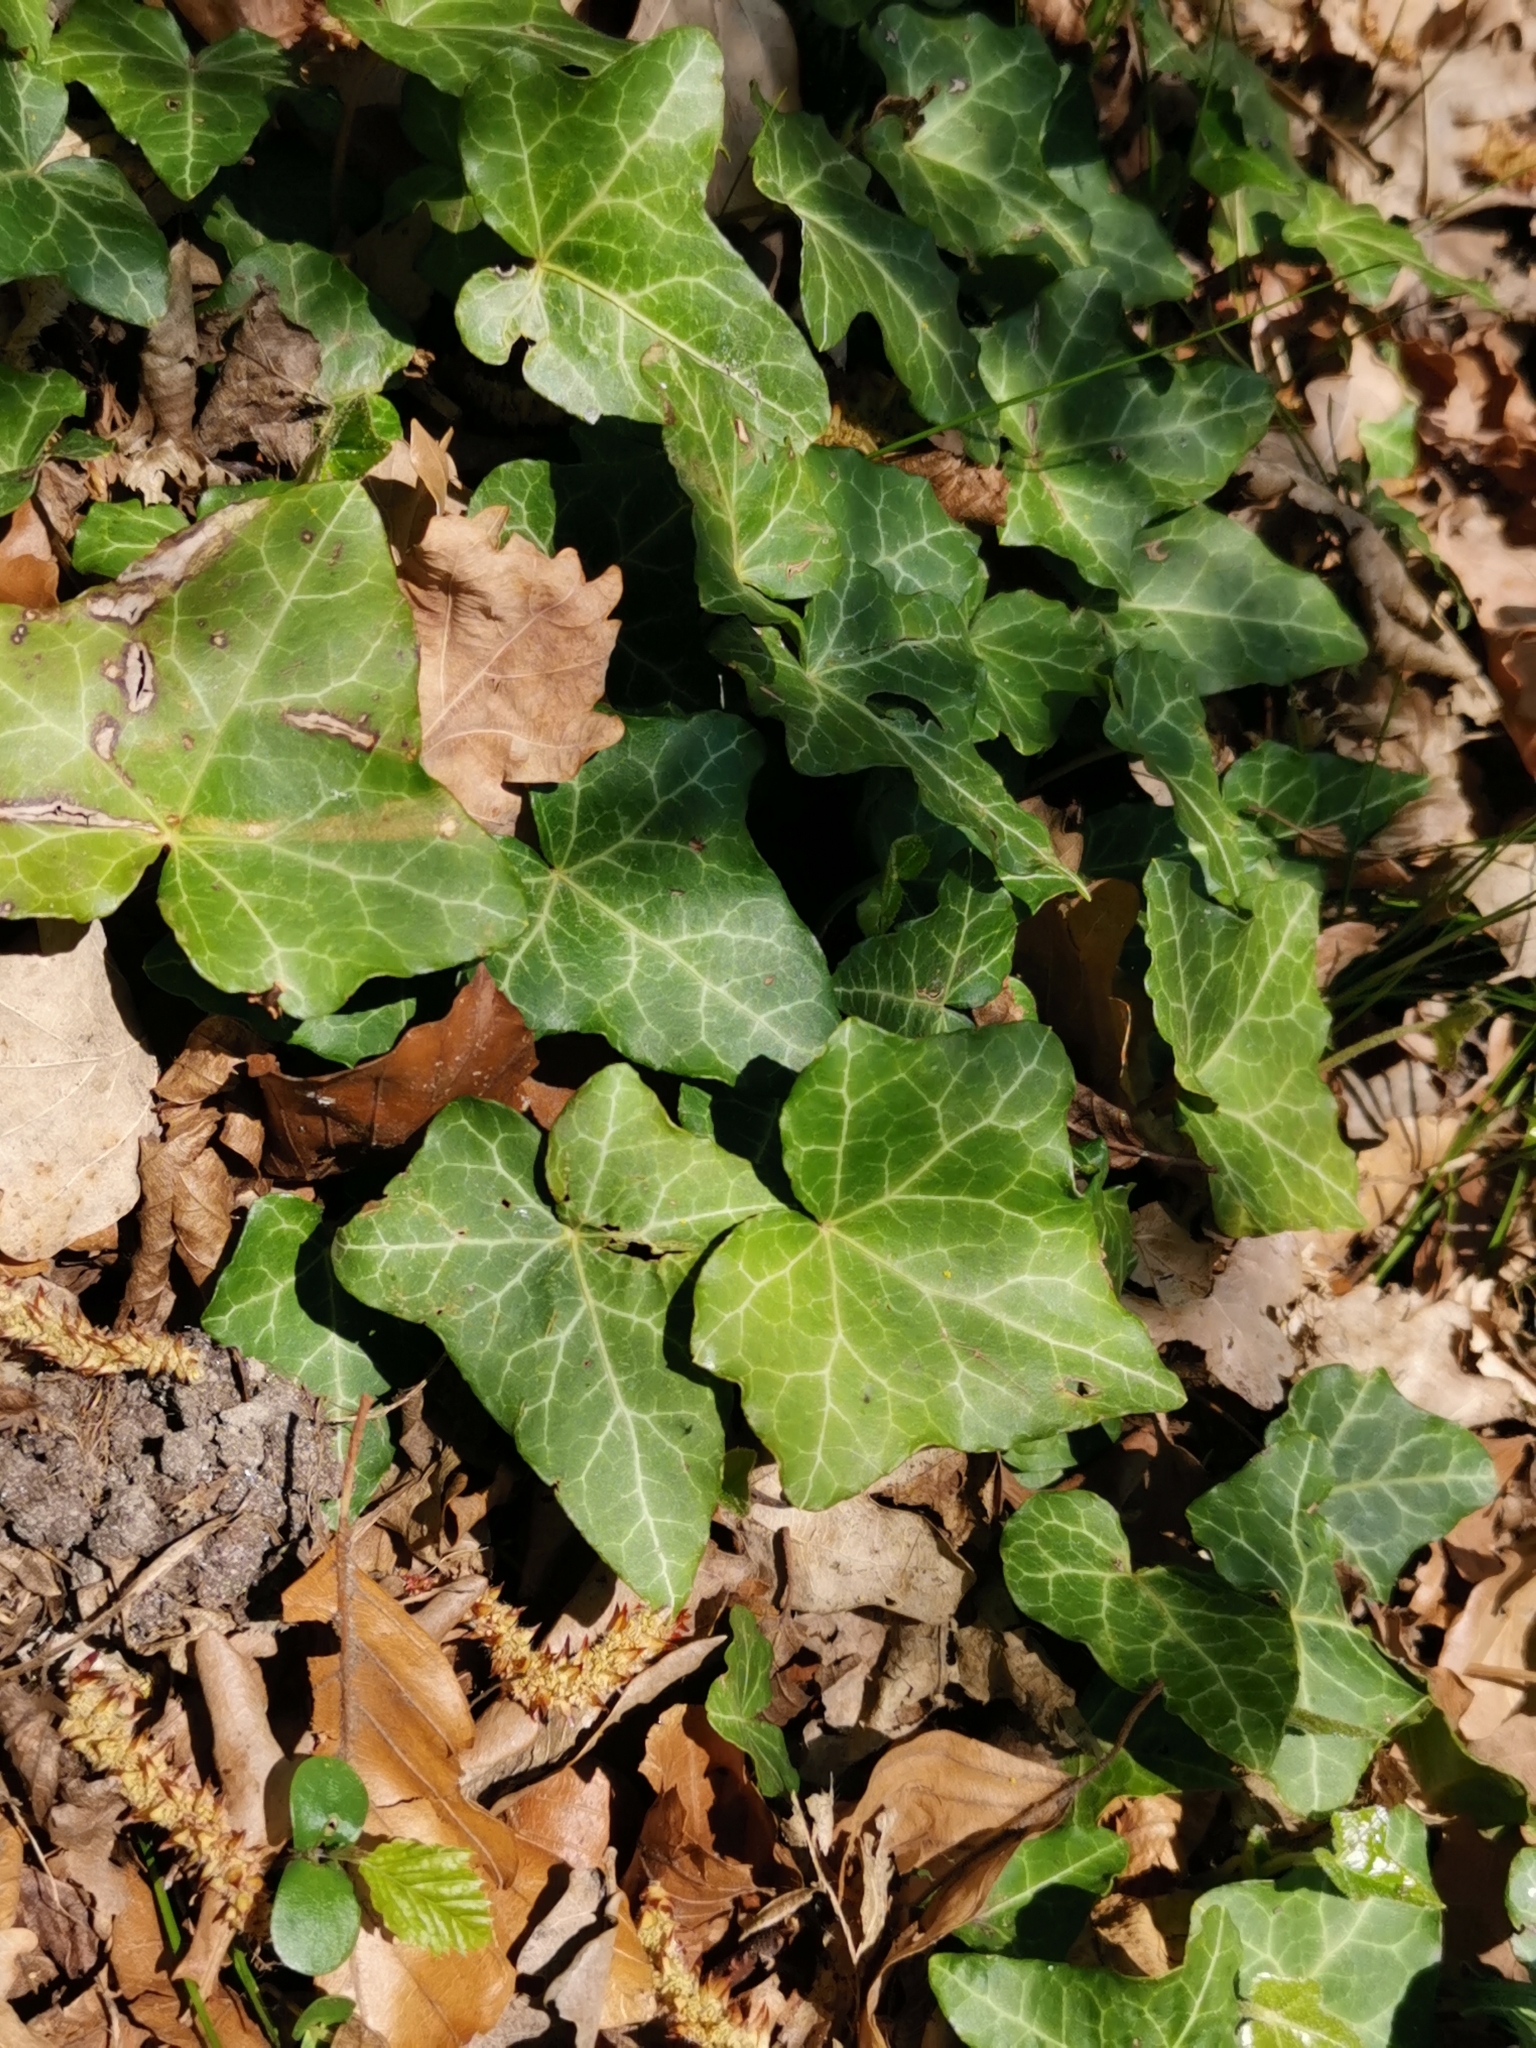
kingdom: Plantae
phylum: Tracheophyta
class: Magnoliopsida
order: Apiales
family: Araliaceae
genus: Hedera
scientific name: Hedera helix
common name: Ivy
